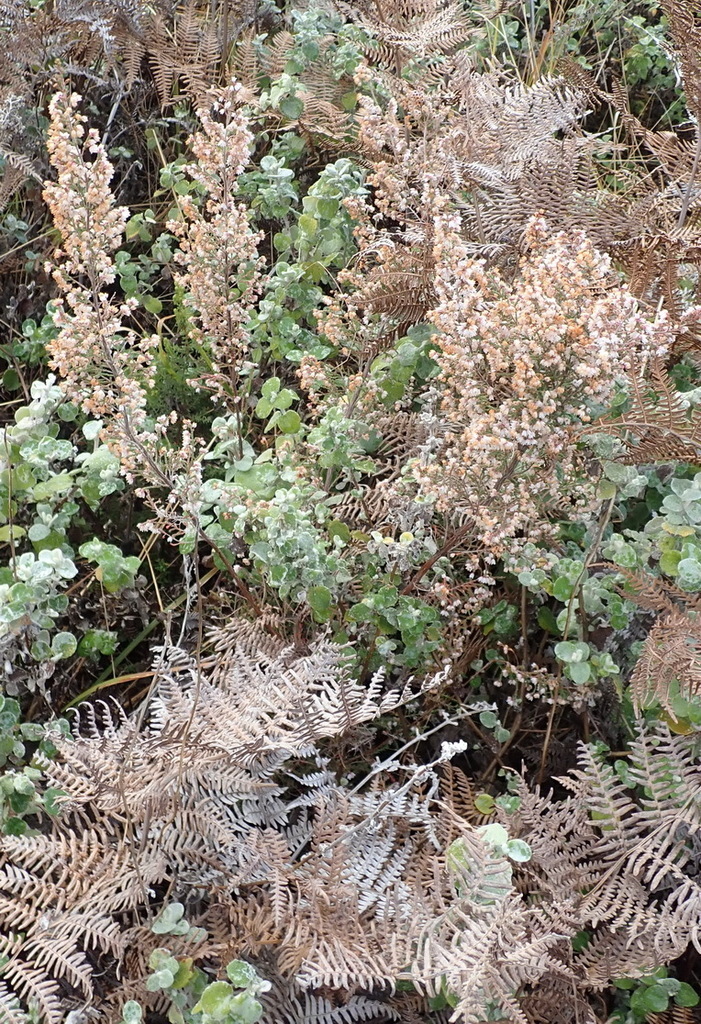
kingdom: Plantae
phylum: Tracheophyta
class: Magnoliopsida
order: Ericales
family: Ericaceae
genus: Erica
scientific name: Erica quadrangularis
